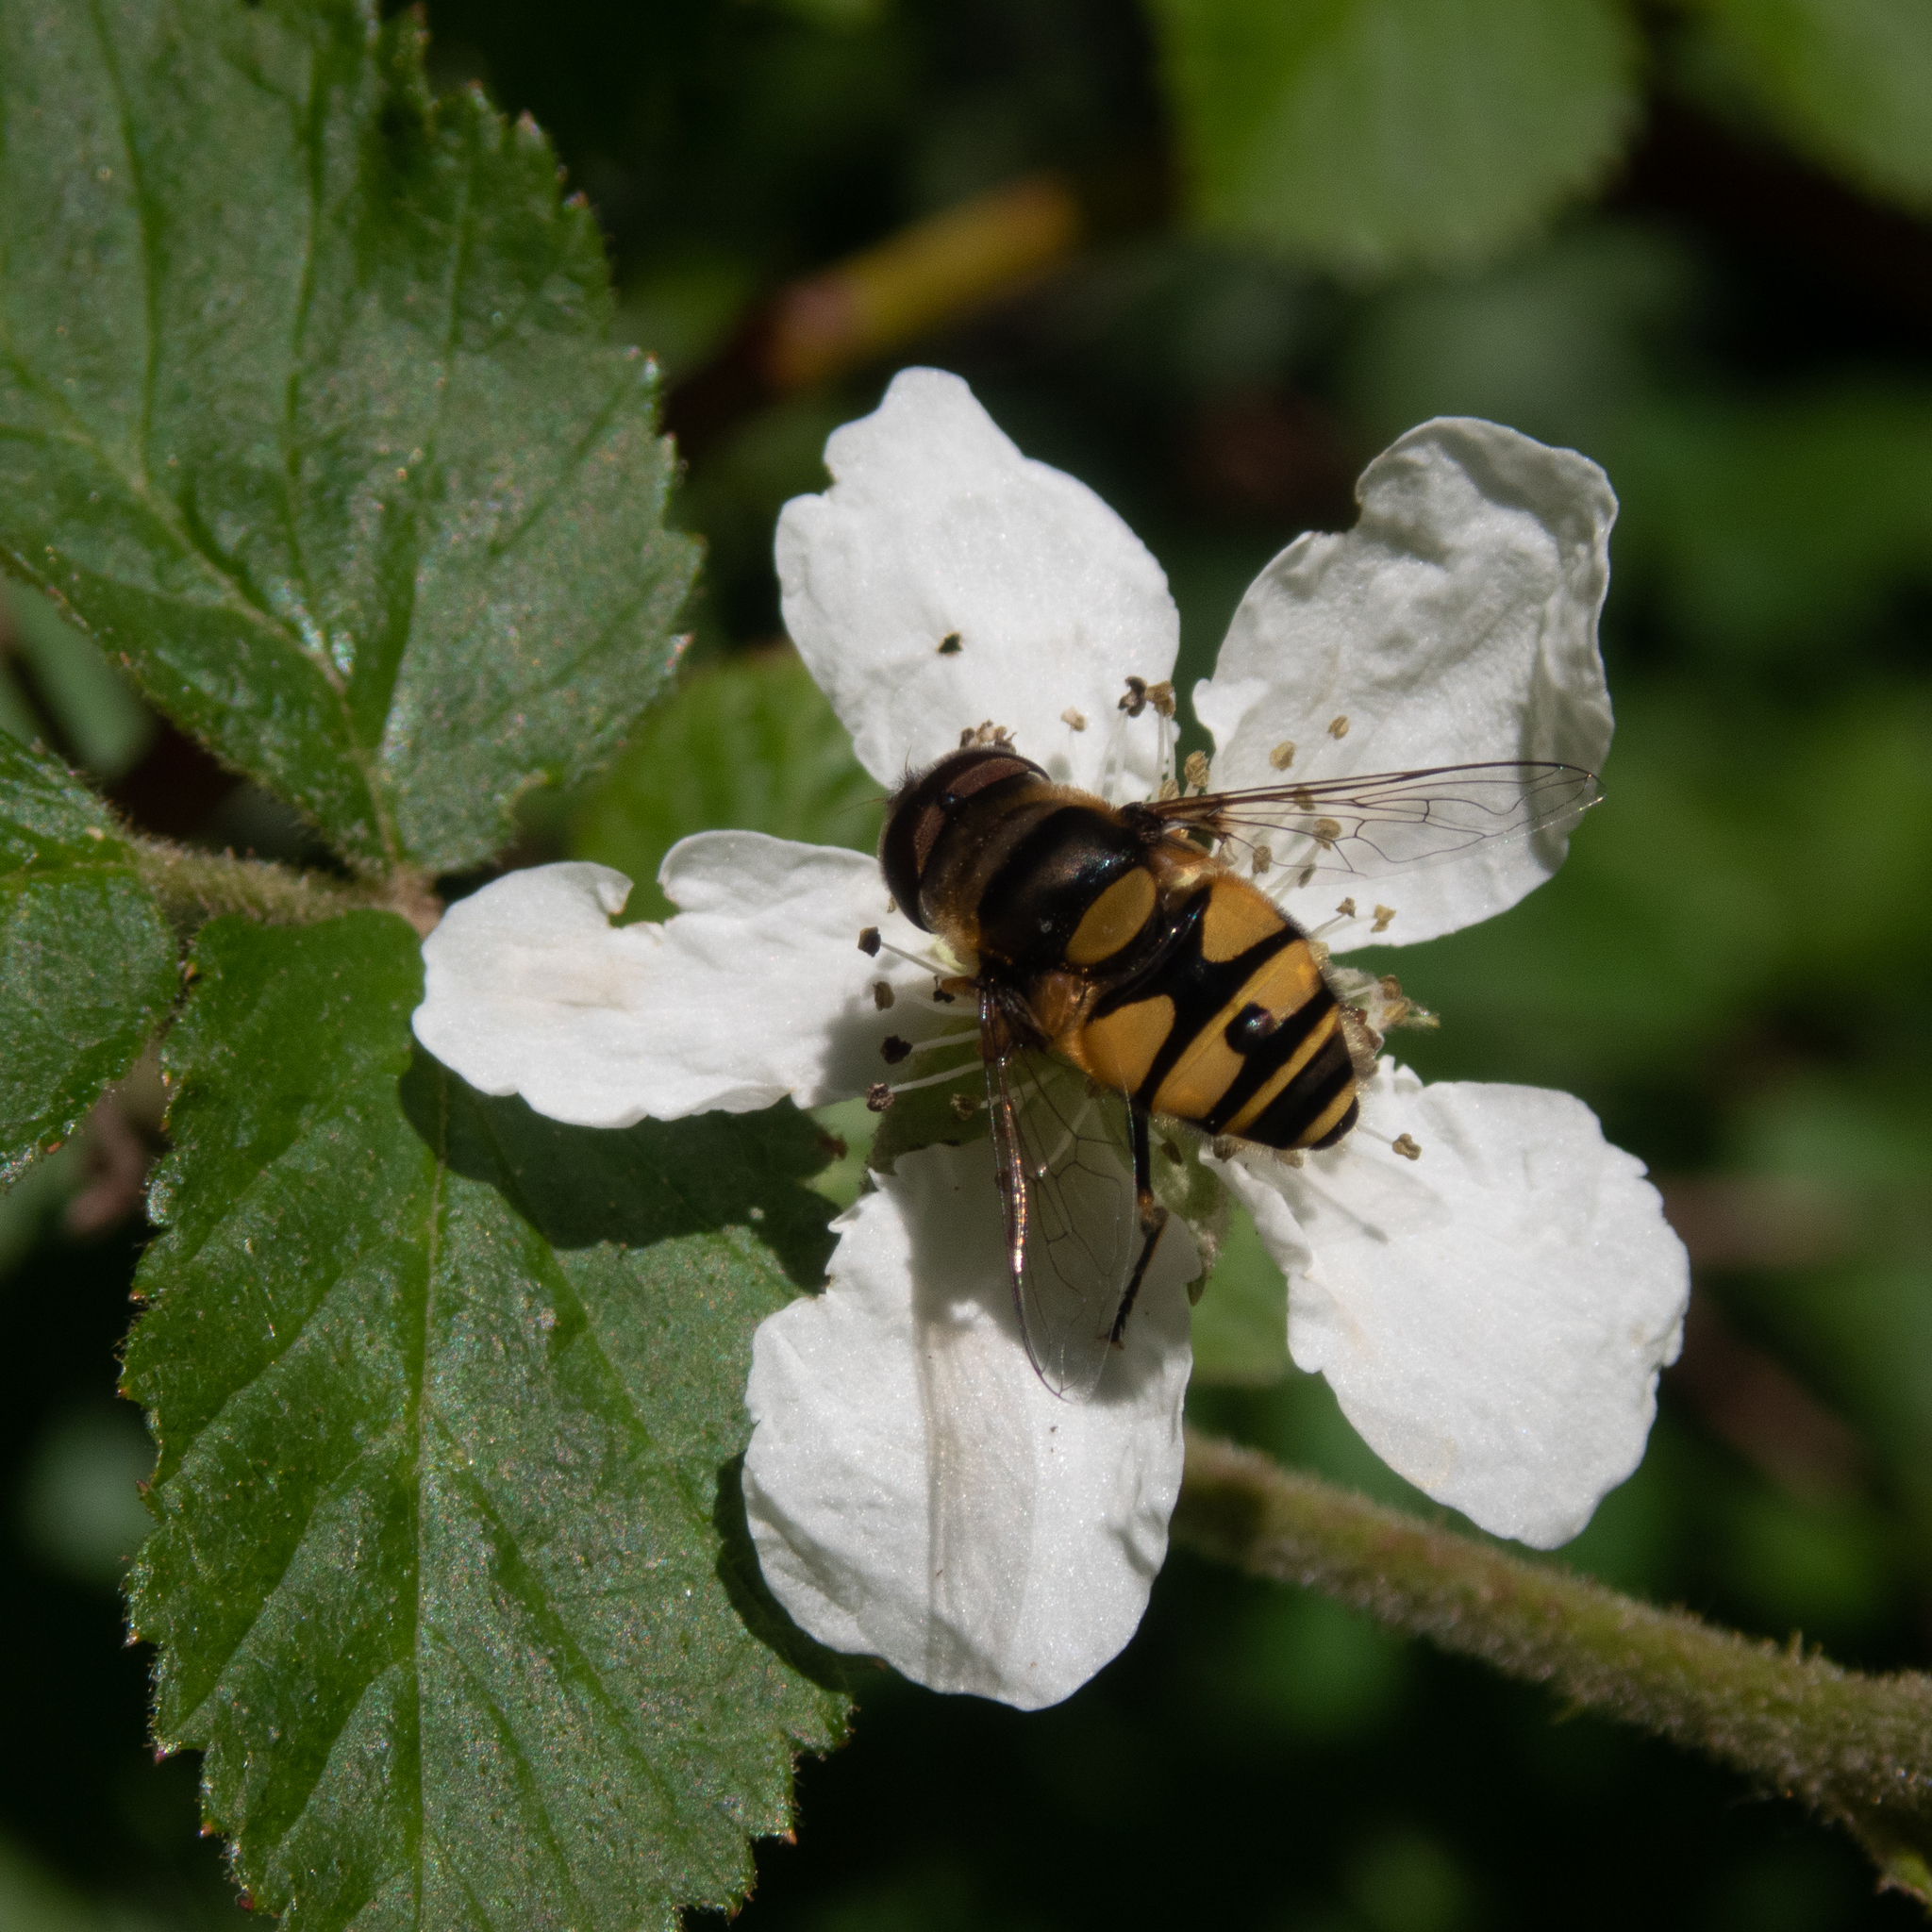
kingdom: Animalia
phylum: Arthropoda
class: Insecta
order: Diptera
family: Syrphidae
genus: Eristalis
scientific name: Eristalis transversa
